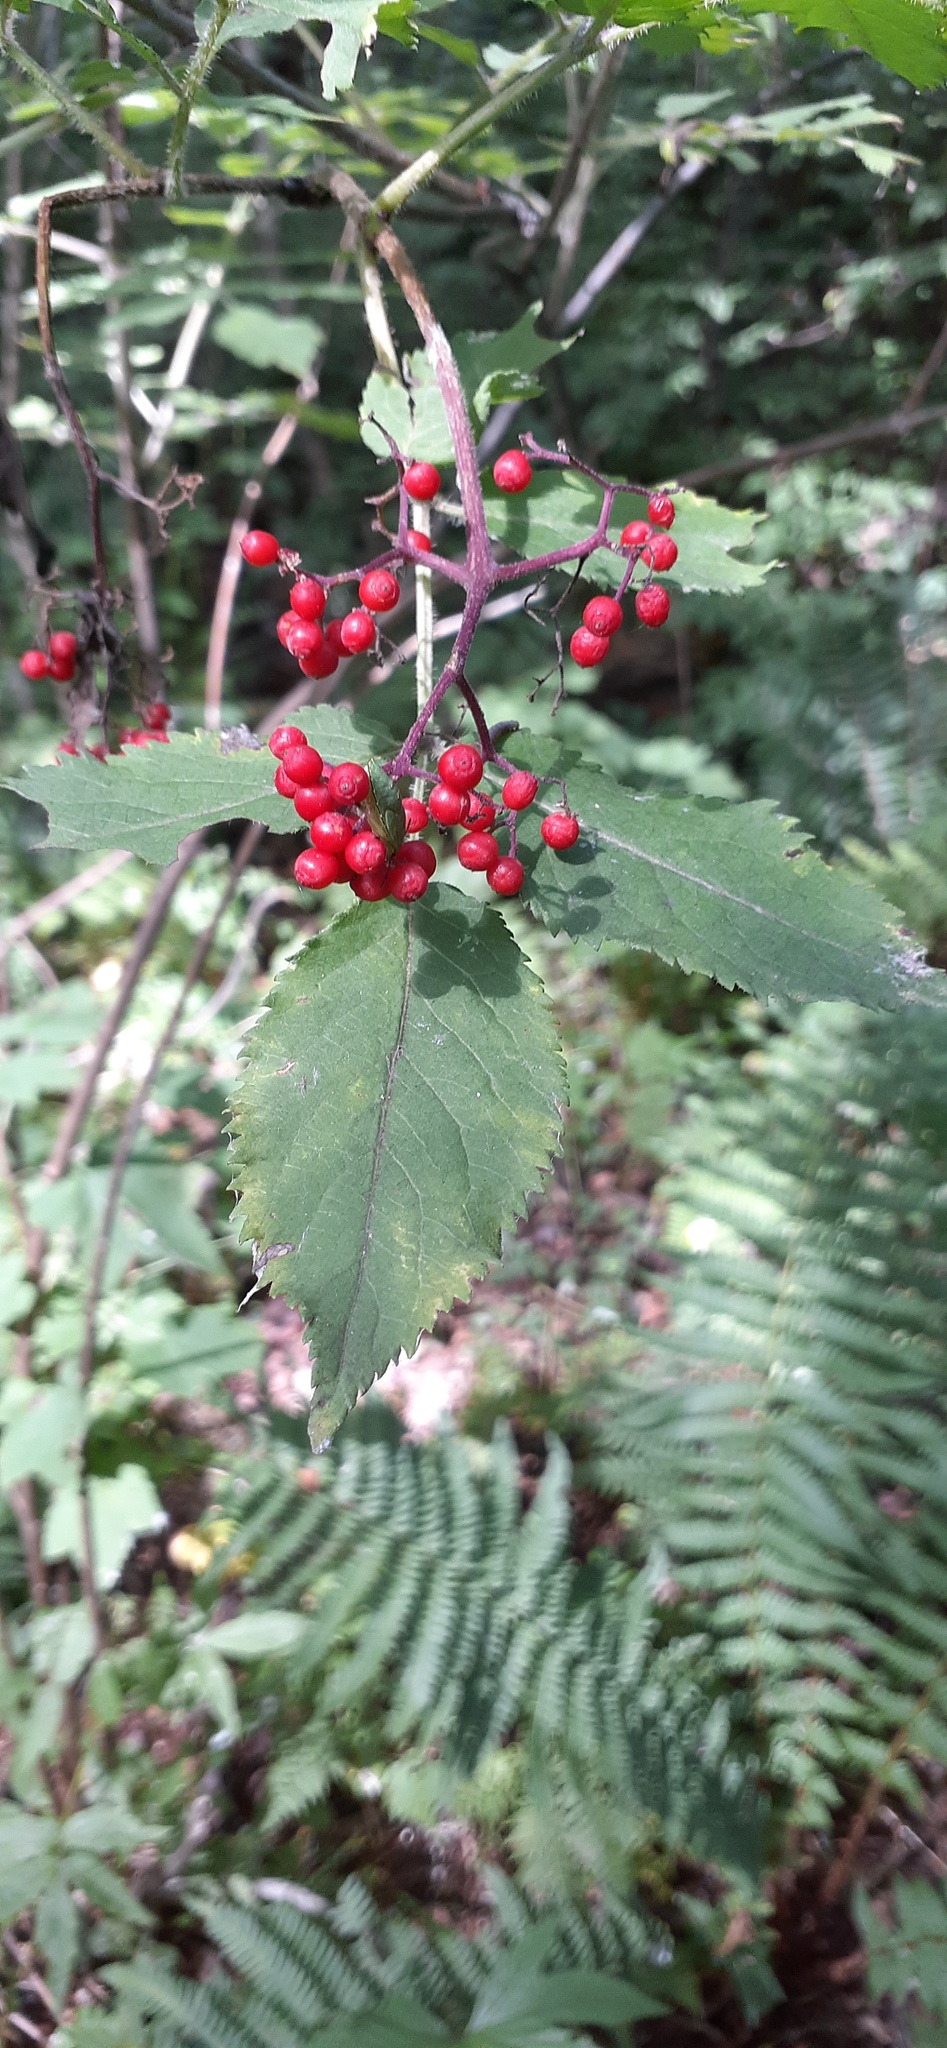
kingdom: Plantae
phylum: Tracheophyta
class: Magnoliopsida
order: Dipsacales
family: Viburnaceae
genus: Sambucus
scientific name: Sambucus sibirica
